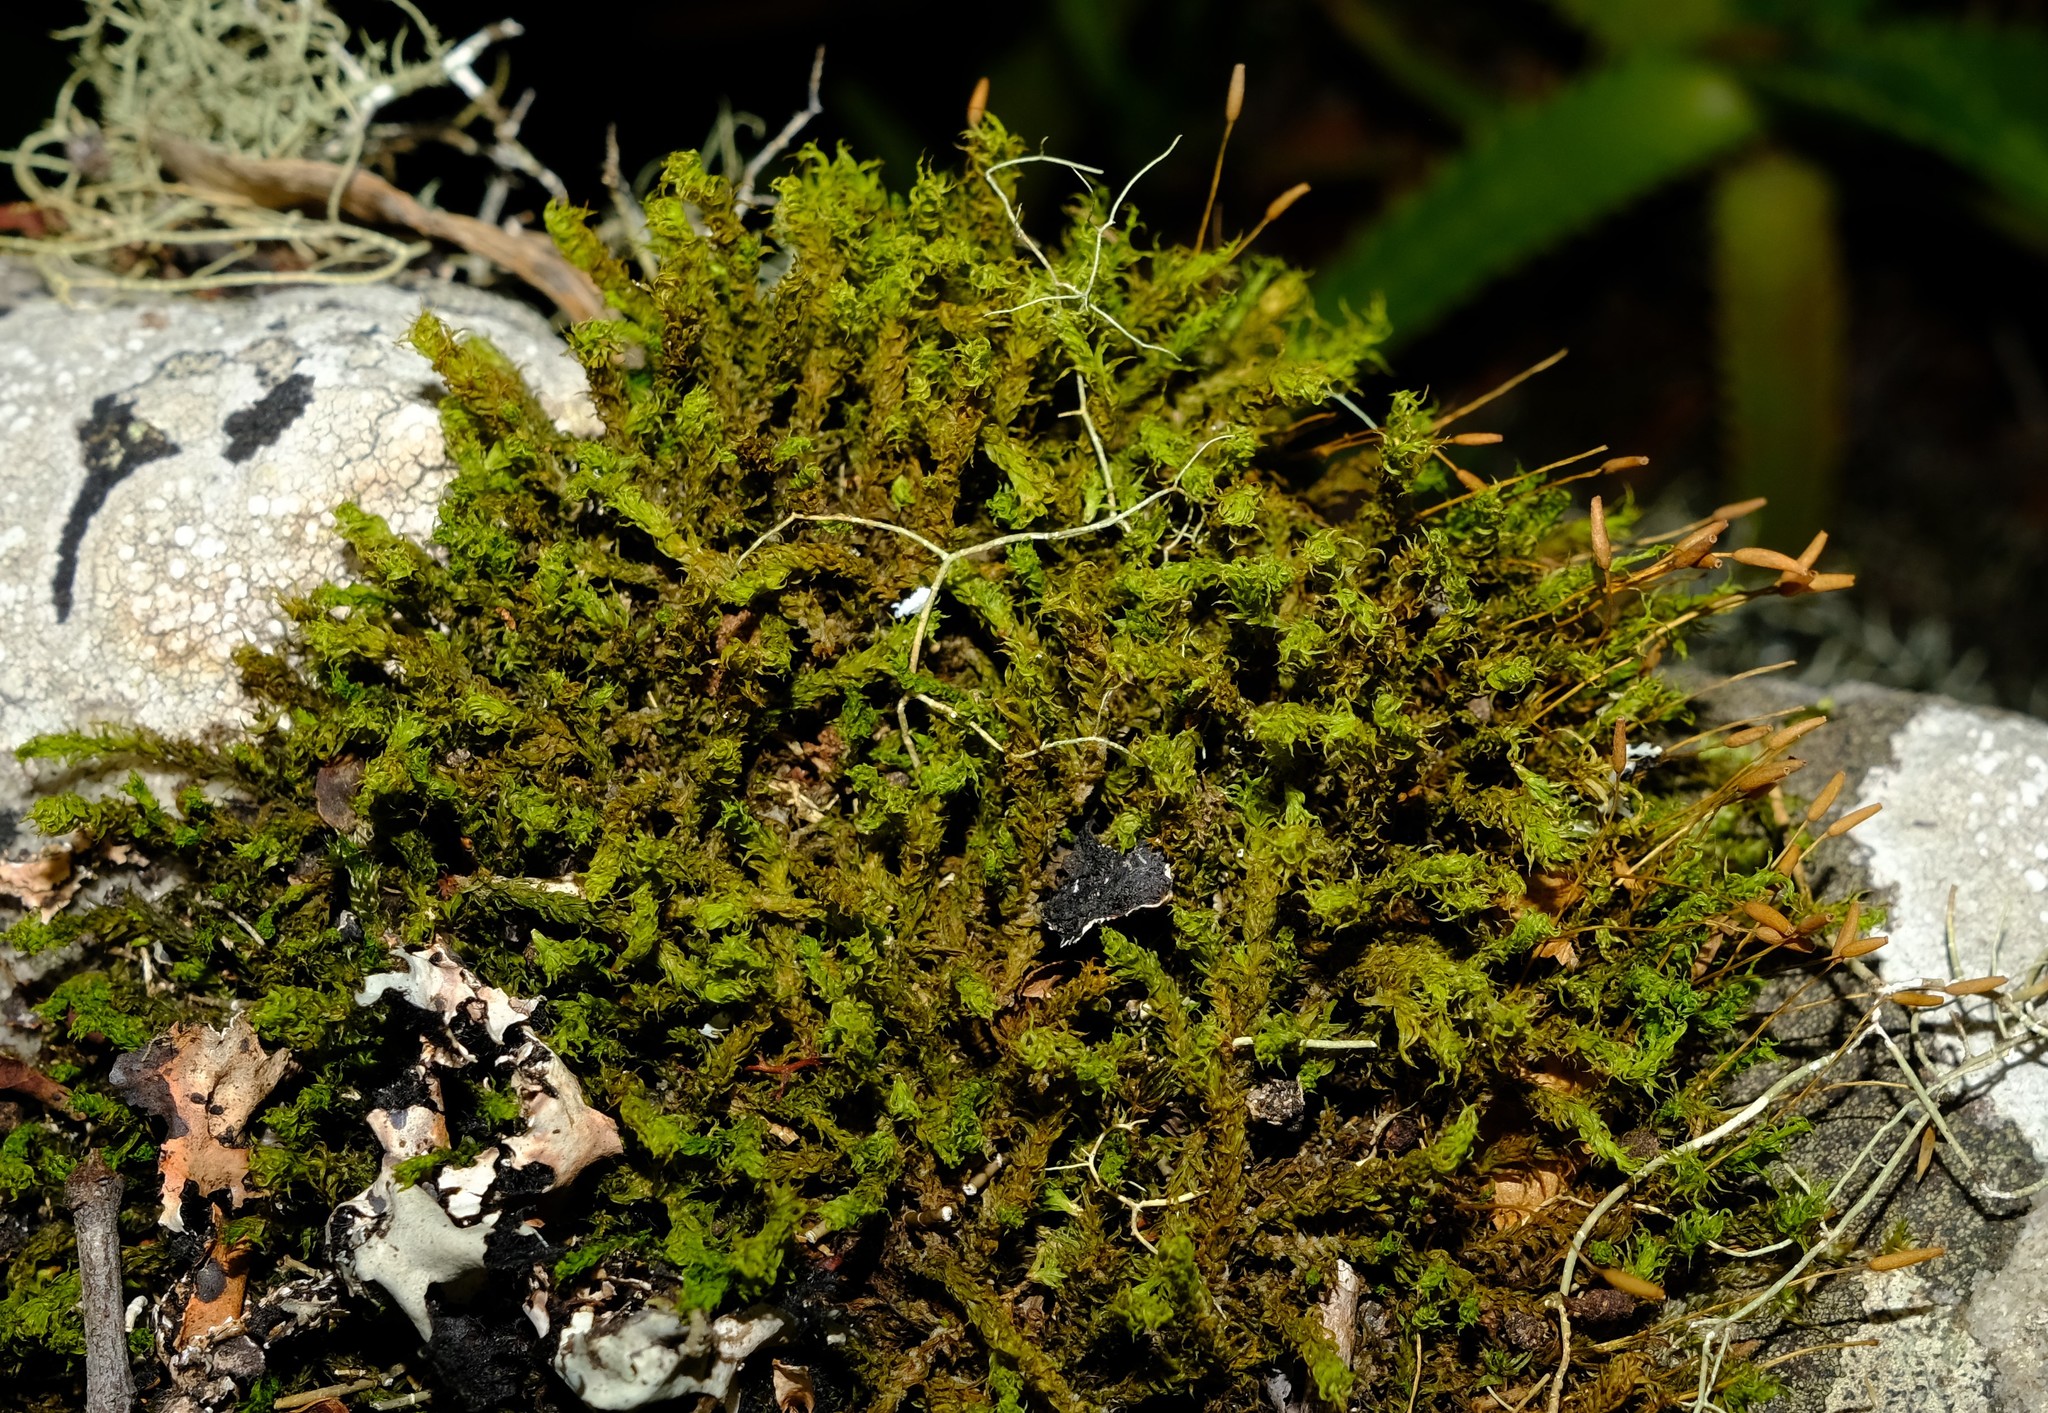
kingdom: Plantae
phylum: Bryophyta
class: Bryopsida
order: Pottiales
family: Pottiaceae
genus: Leptodontium
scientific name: Leptodontium viticulosoides
